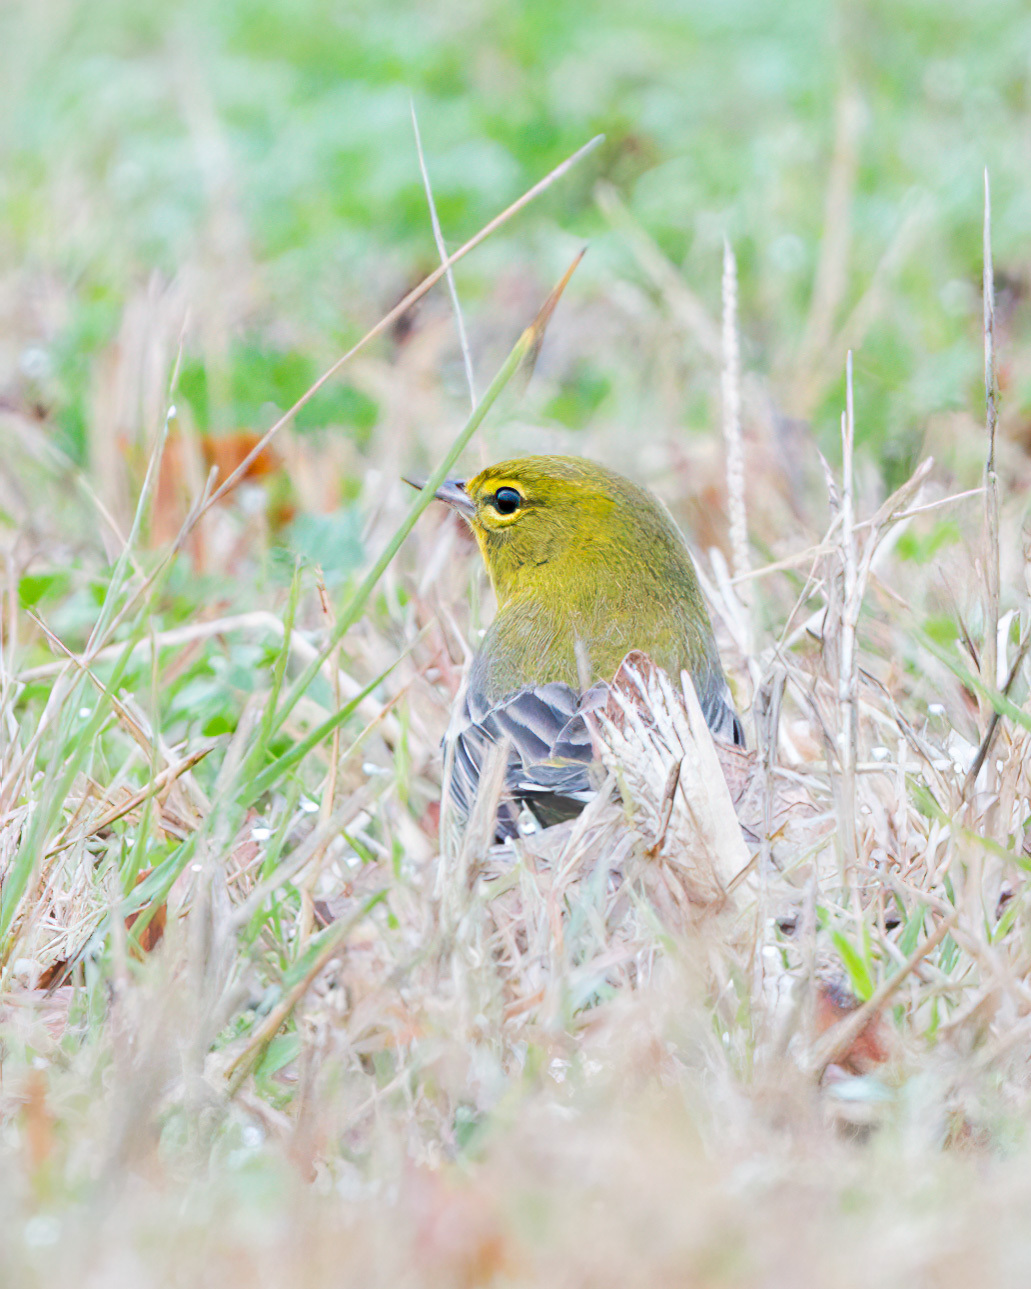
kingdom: Animalia
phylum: Chordata
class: Aves
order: Passeriformes
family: Parulidae
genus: Setophaga
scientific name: Setophaga pinus
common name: Pine warbler
